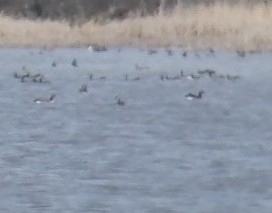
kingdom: Animalia
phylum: Chordata
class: Aves
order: Anseriformes
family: Anatidae
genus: Branta
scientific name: Branta canadensis
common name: Canada goose
